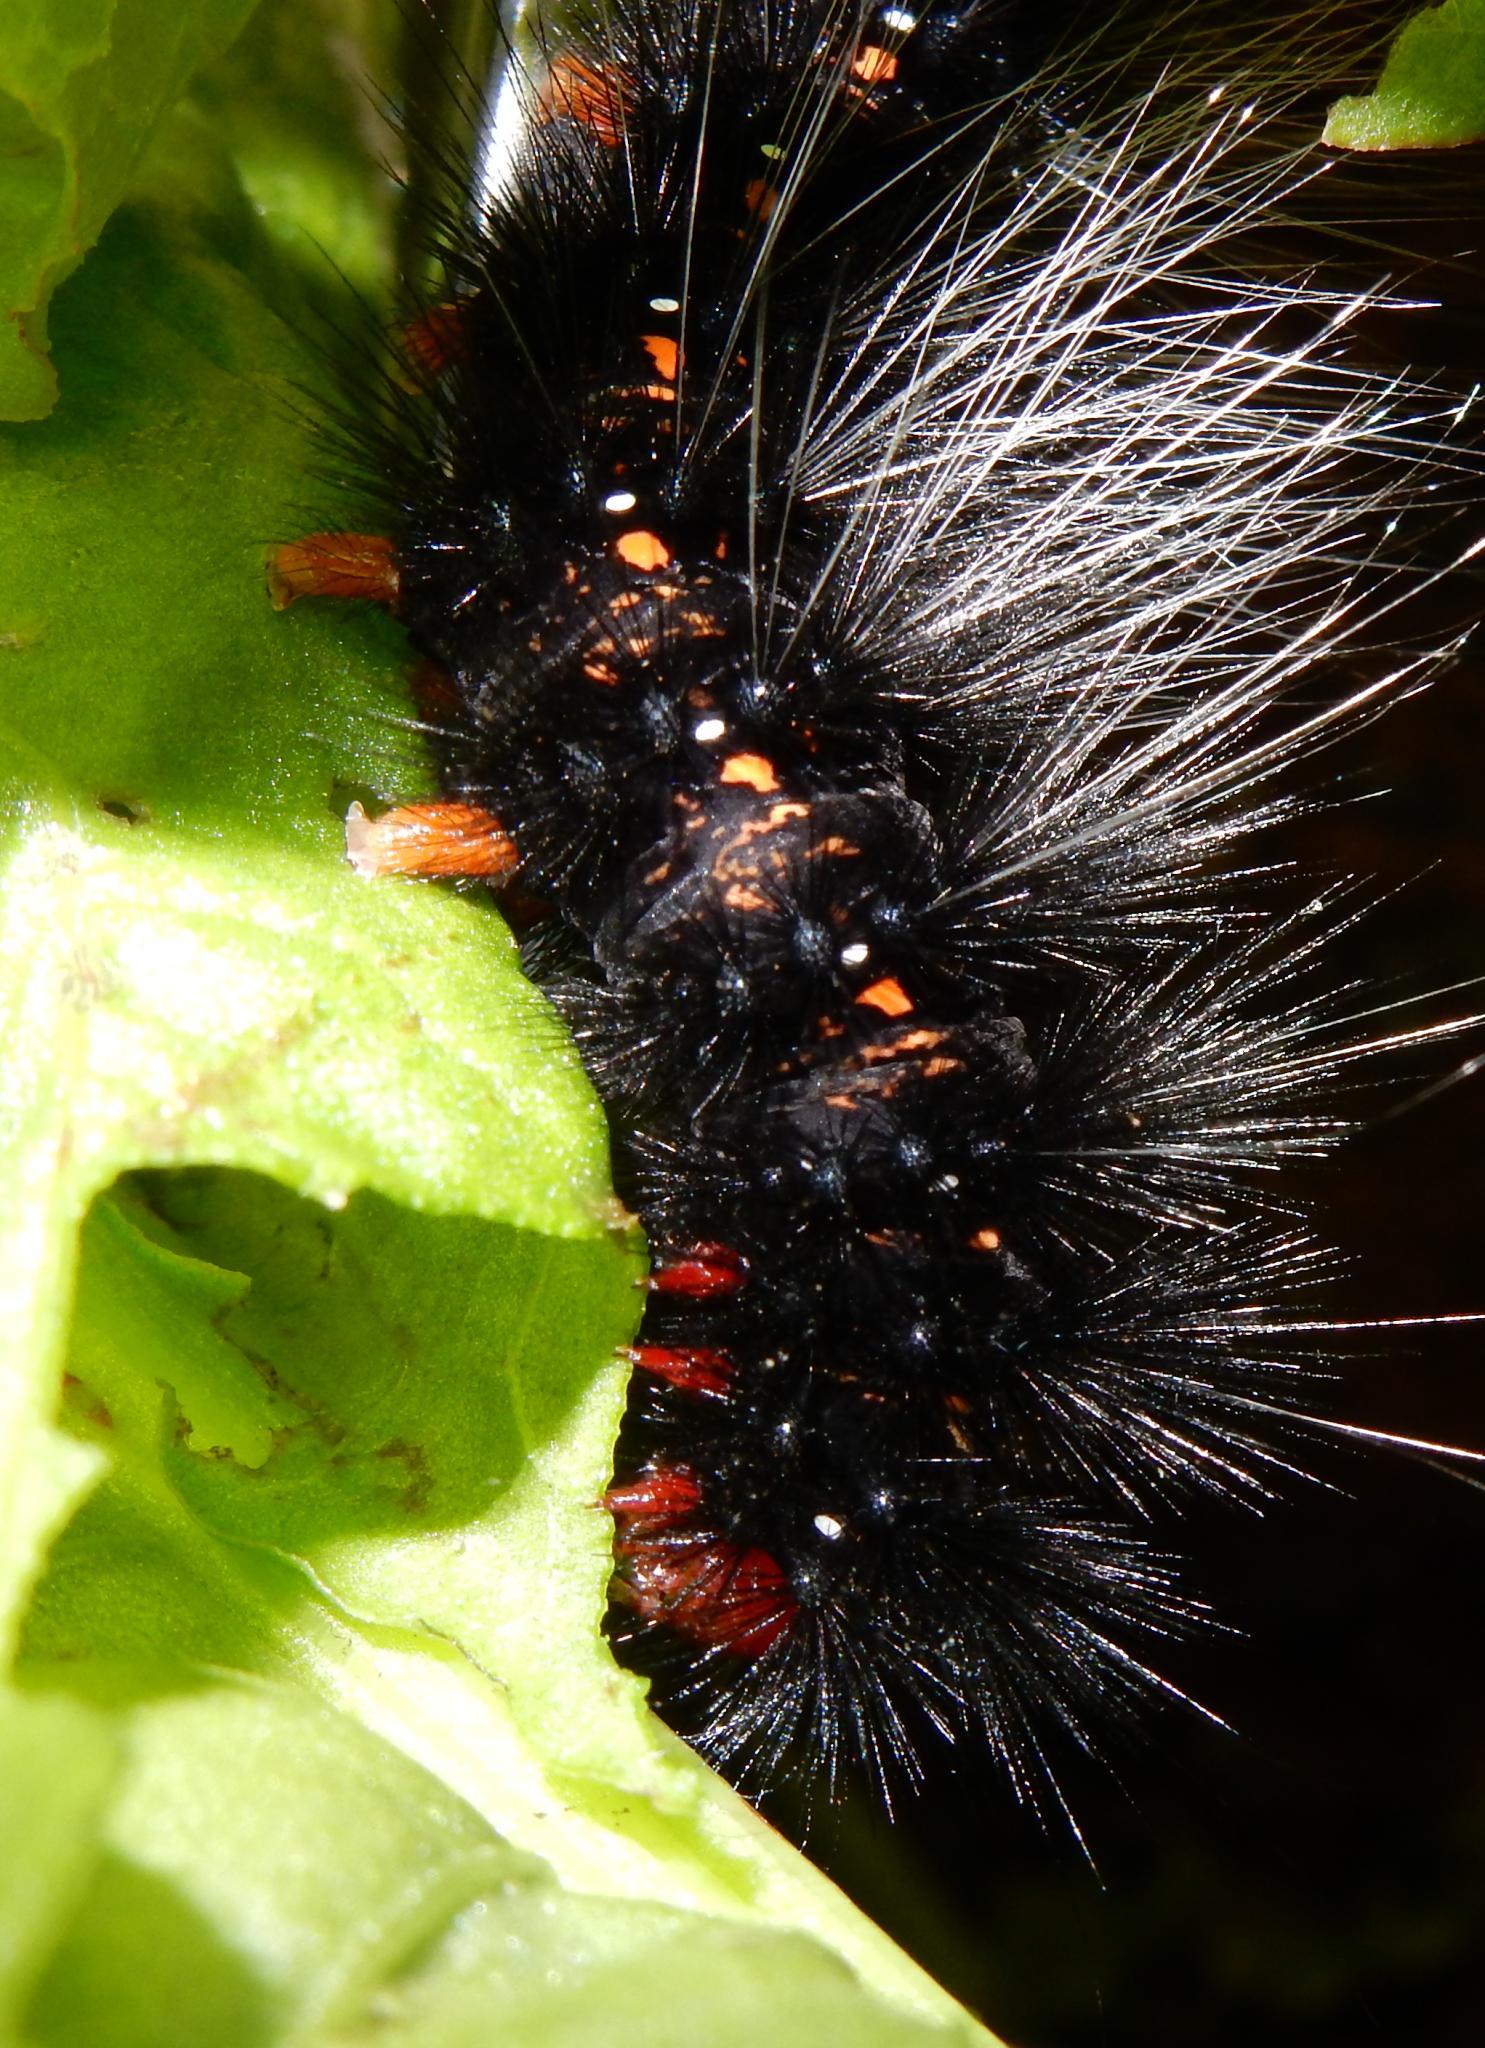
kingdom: Animalia
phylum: Arthropoda
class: Insecta
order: Lepidoptera
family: Erebidae
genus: Afromurzinia
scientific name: Afromurzinia lutescens
